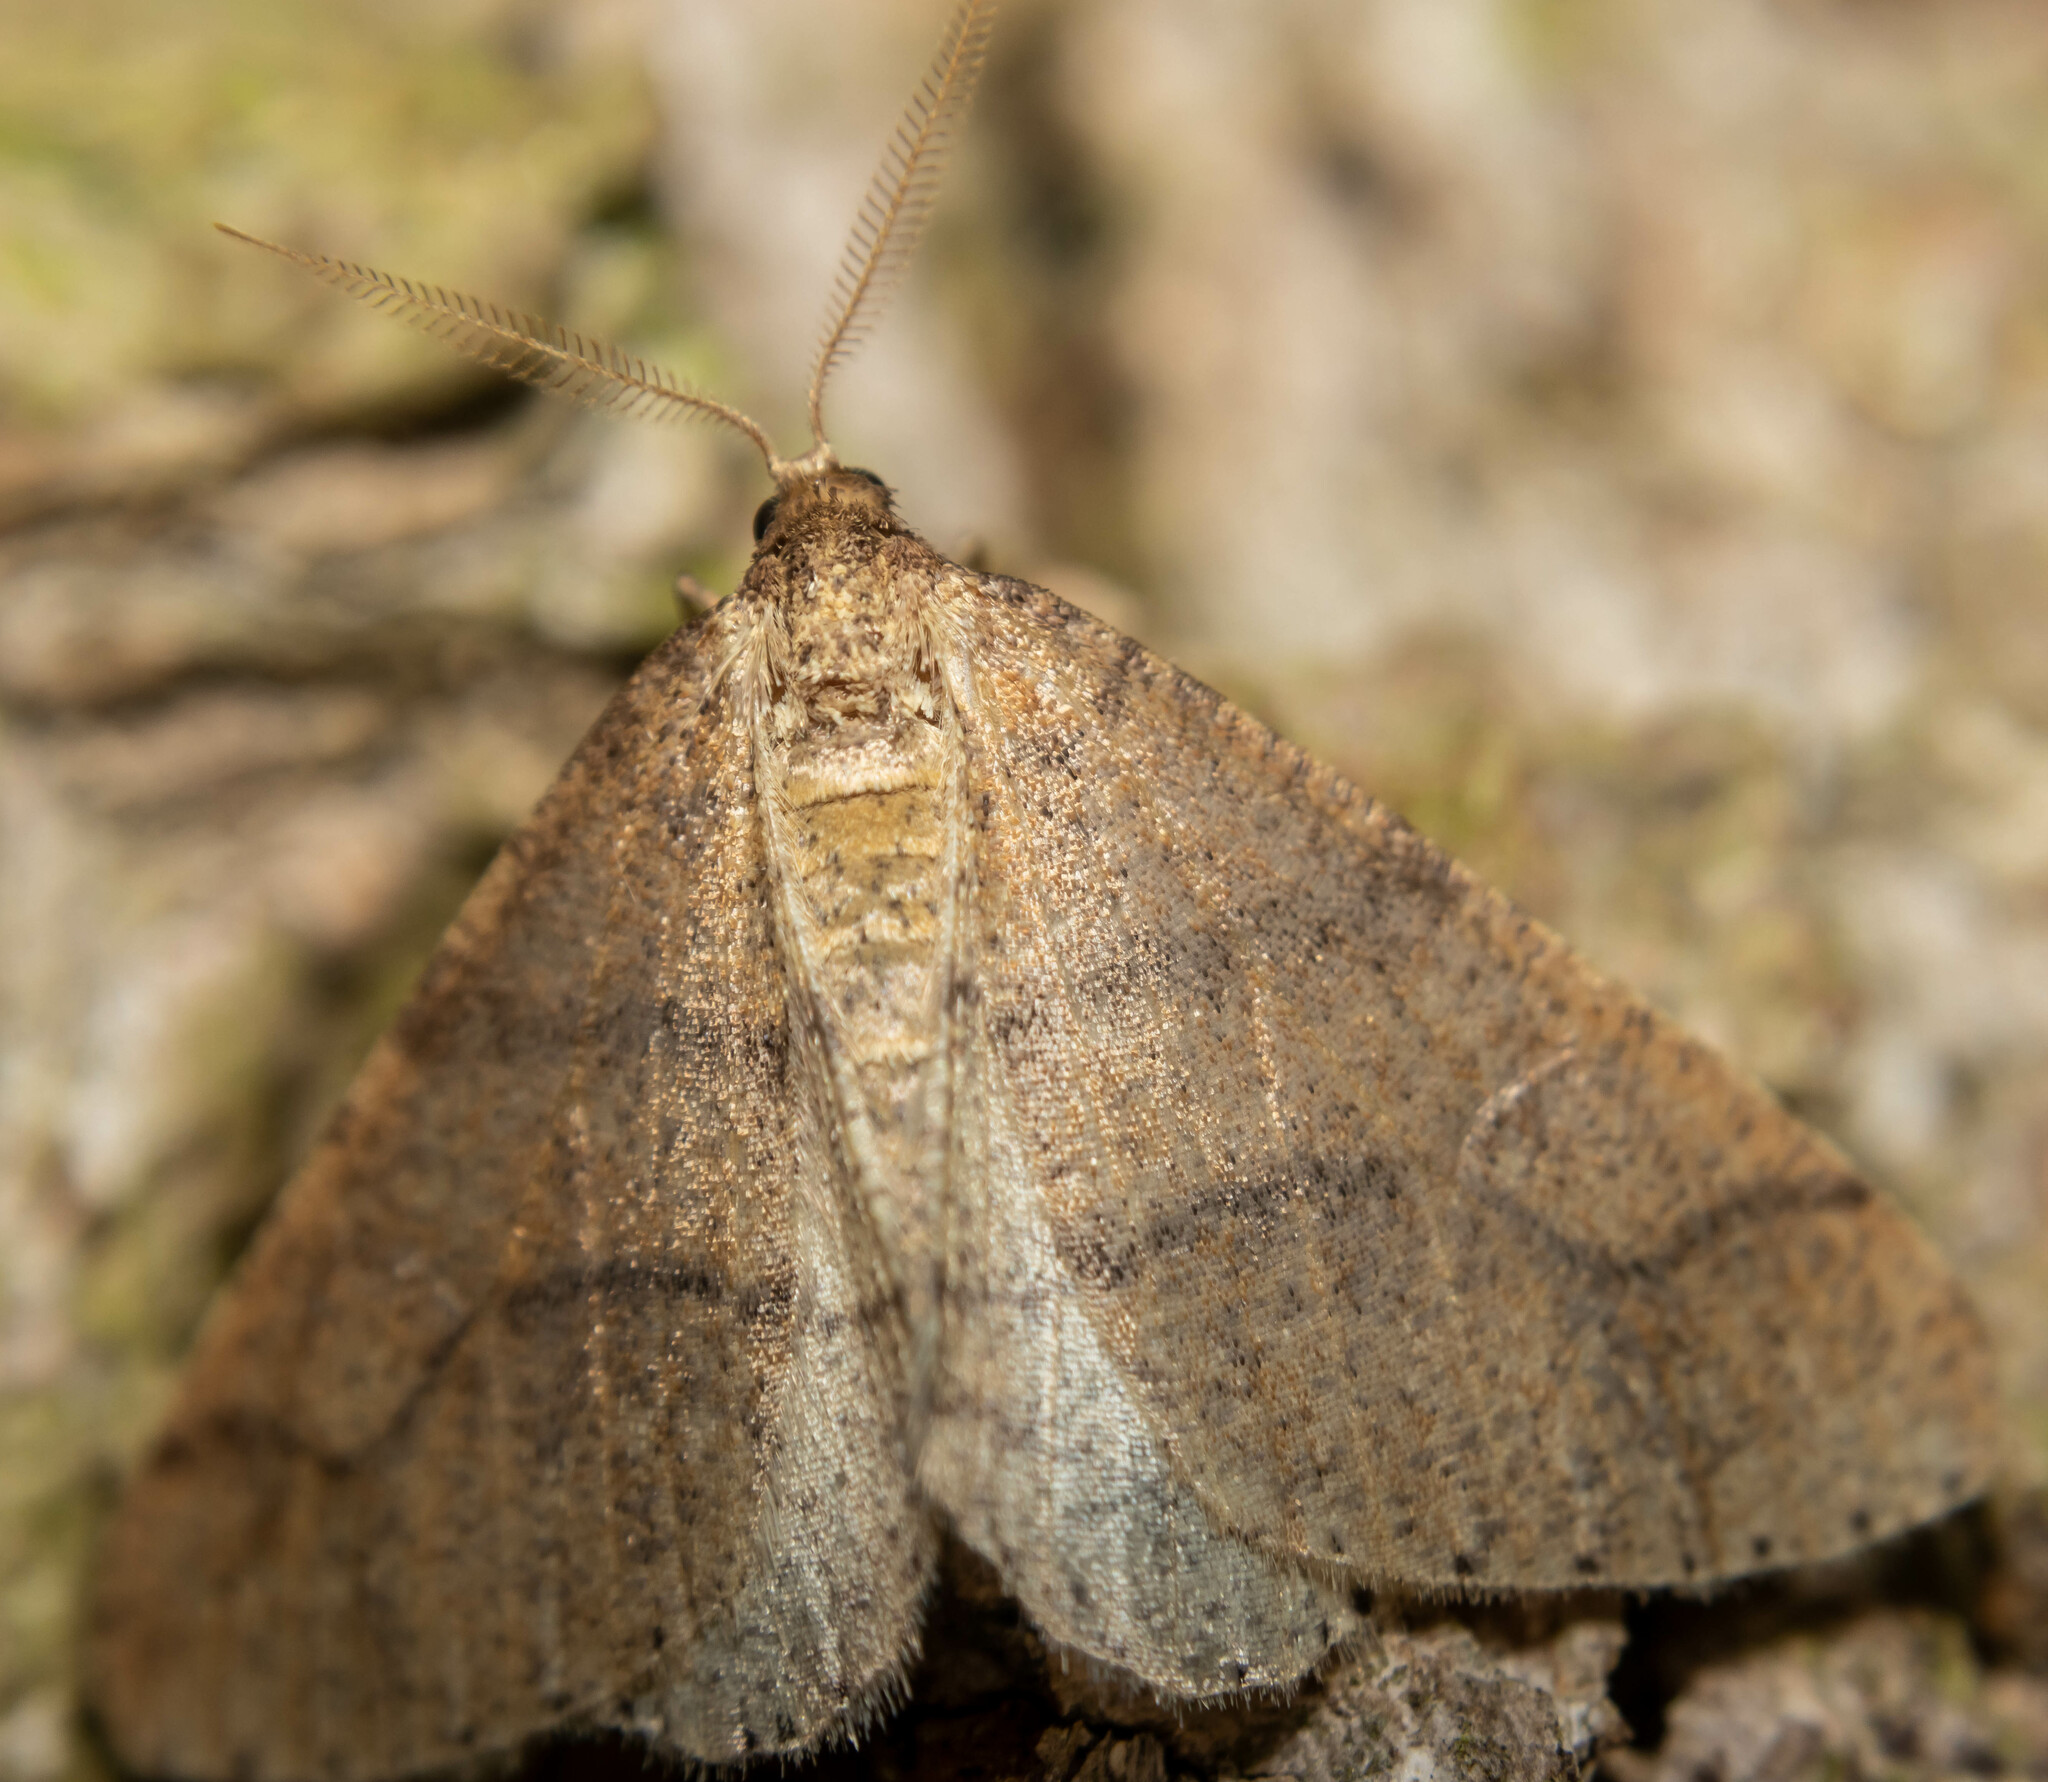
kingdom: Animalia
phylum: Arthropoda
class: Insecta
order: Lepidoptera
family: Geometridae
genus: Agriopis
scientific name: Agriopis marginaria
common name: Dotted border
